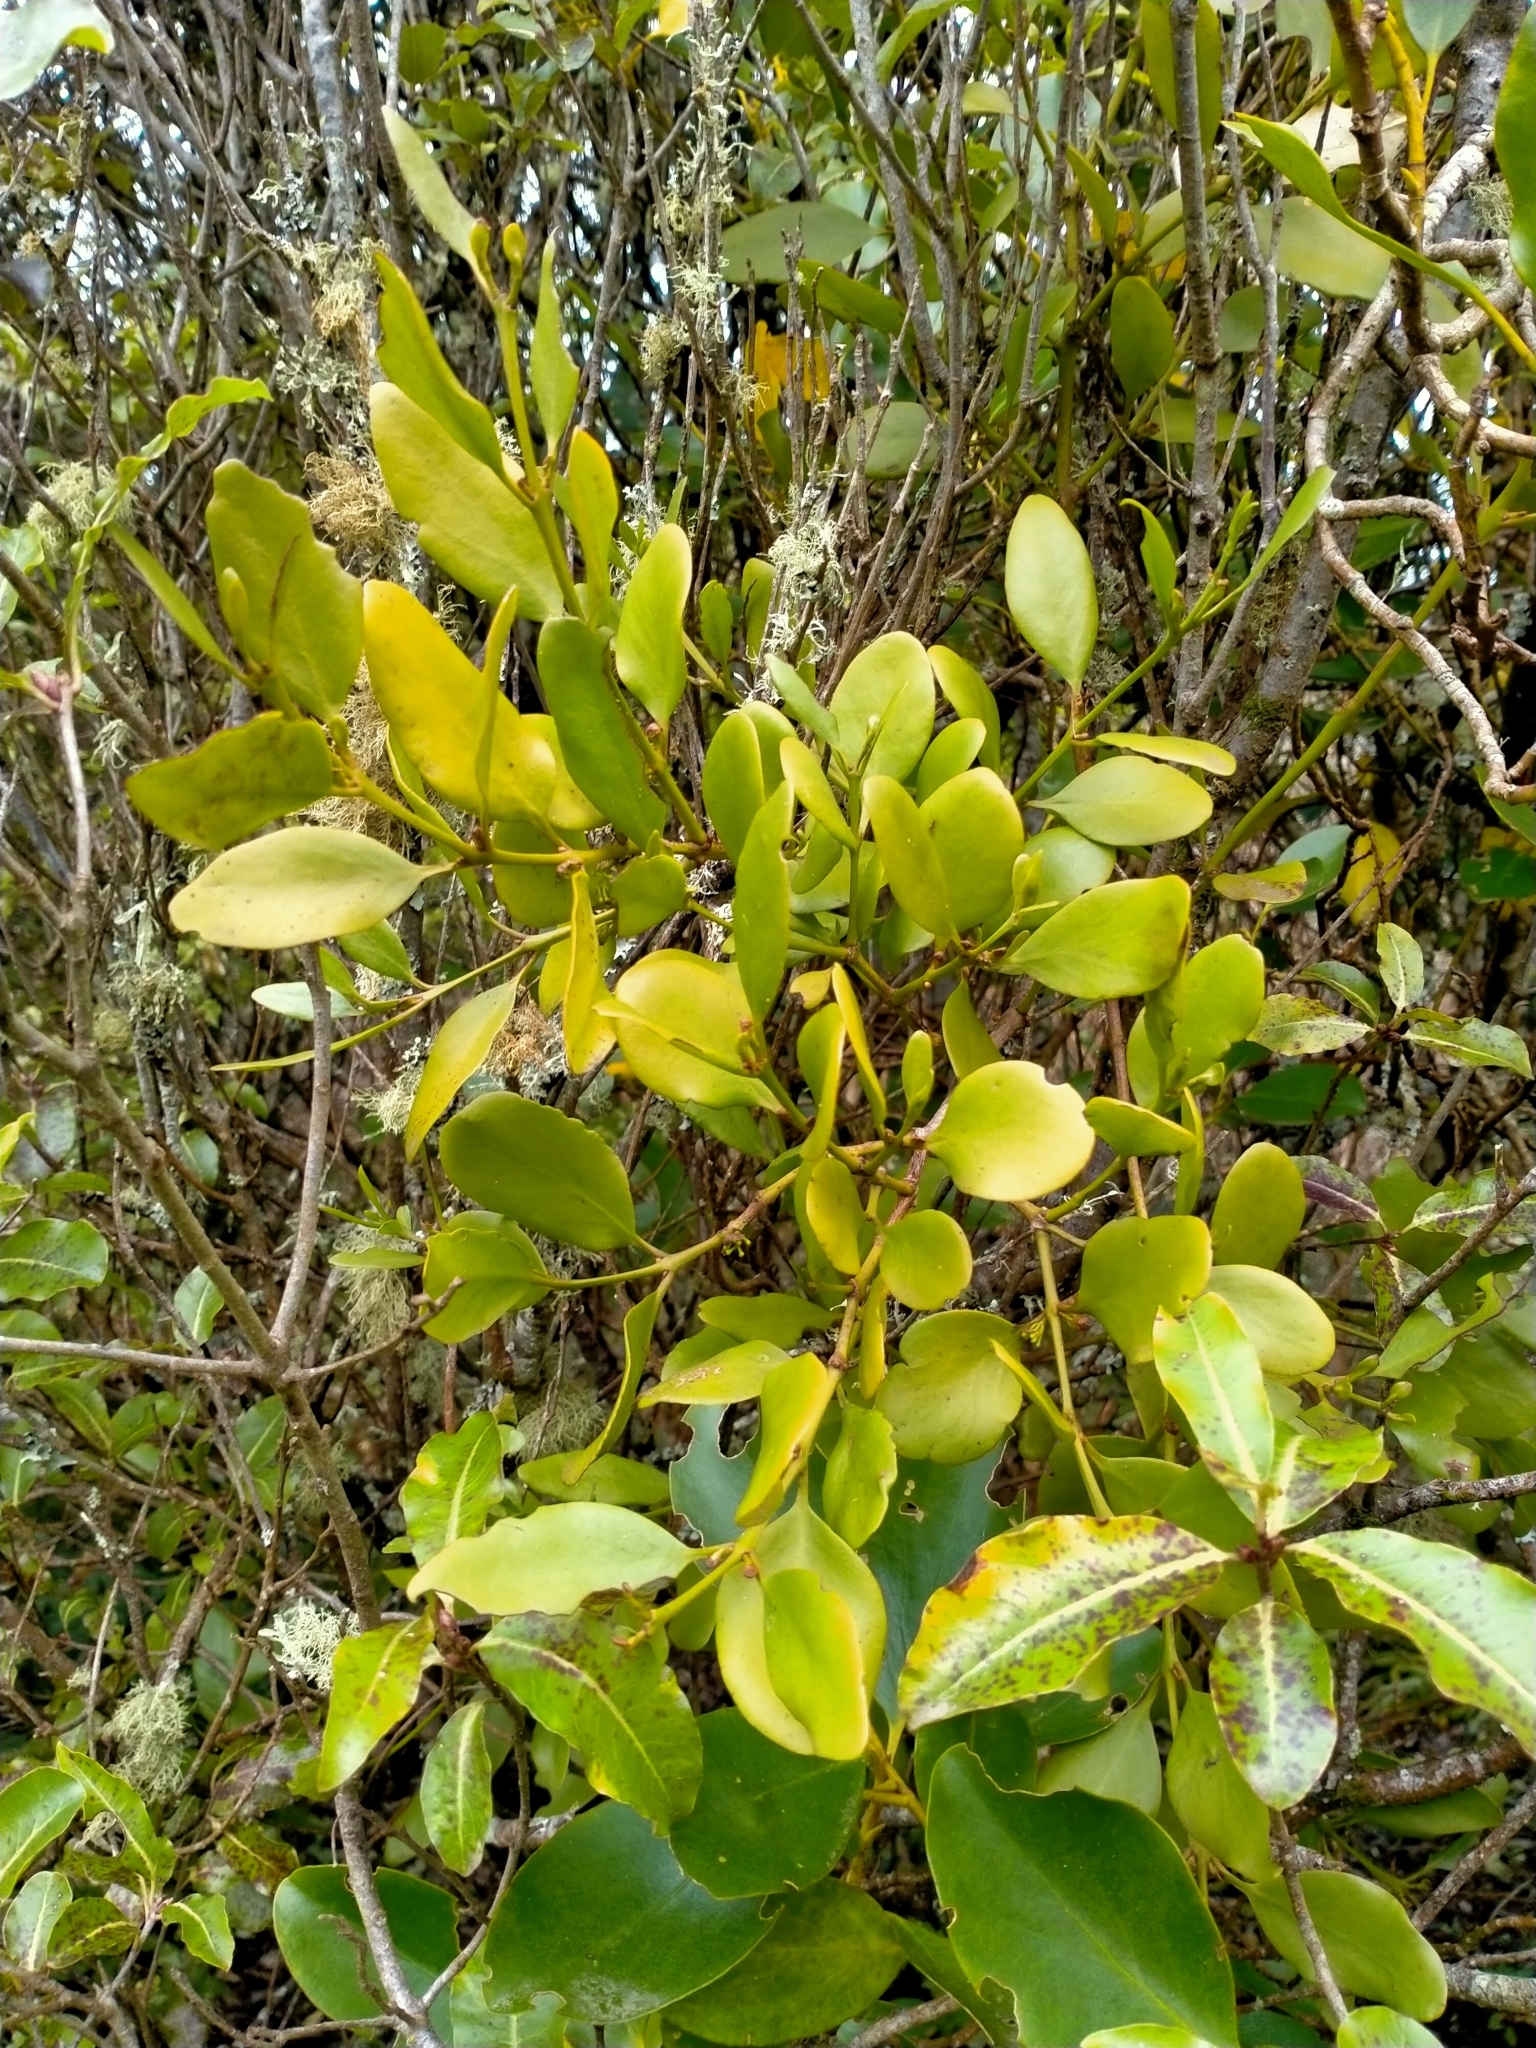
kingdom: Plantae
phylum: Tracheophyta
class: Magnoliopsida
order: Santalales
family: Loranthaceae
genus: Ileostylus
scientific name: Ileostylus micranthus
